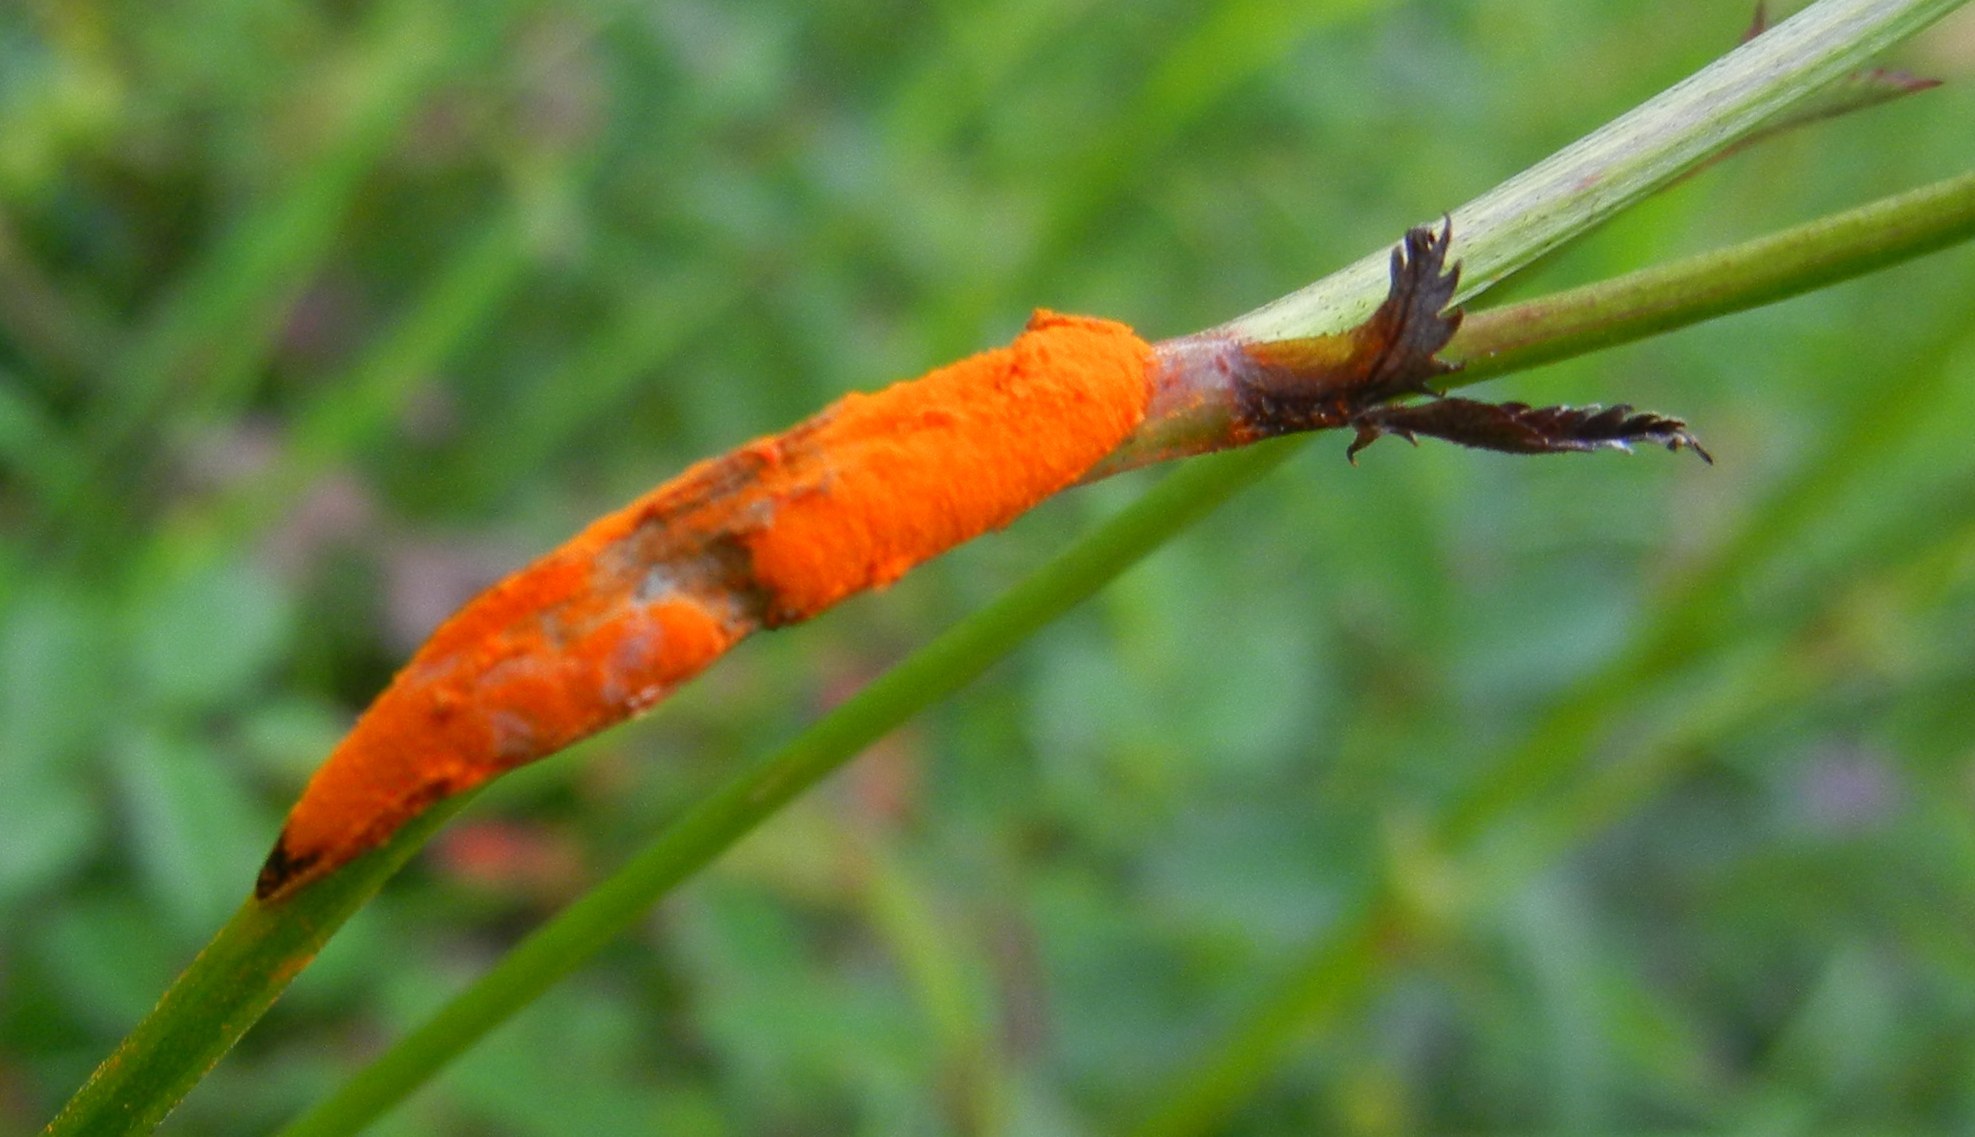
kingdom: Fungi
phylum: Basidiomycota
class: Pucciniomycetes
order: Pucciniales
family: Phragmidiaceae
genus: Xenodochus
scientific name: Xenodochus carbonarius
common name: Great burnet rust
